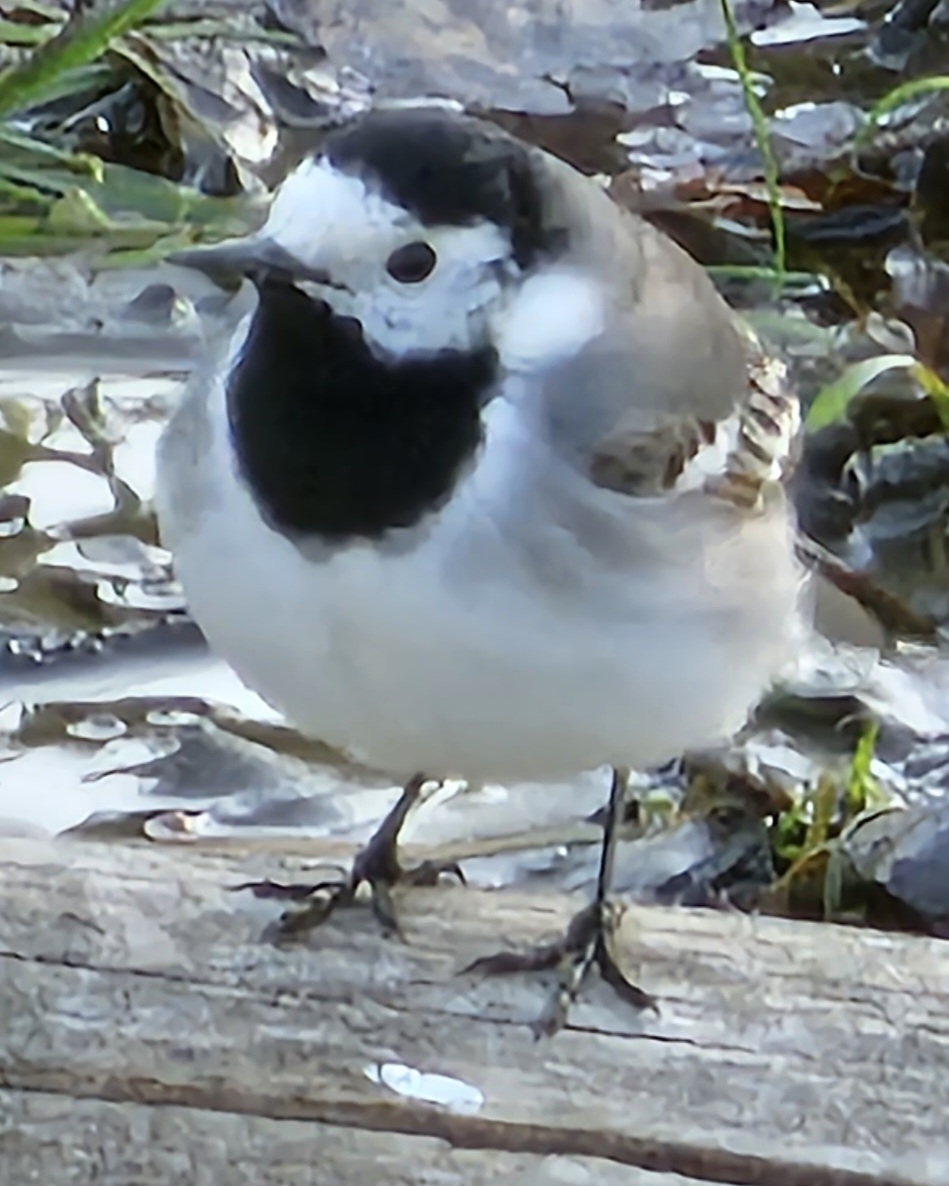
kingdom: Animalia
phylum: Chordata
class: Aves
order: Passeriformes
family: Motacillidae
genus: Motacilla
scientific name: Motacilla alba
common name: White wagtail
